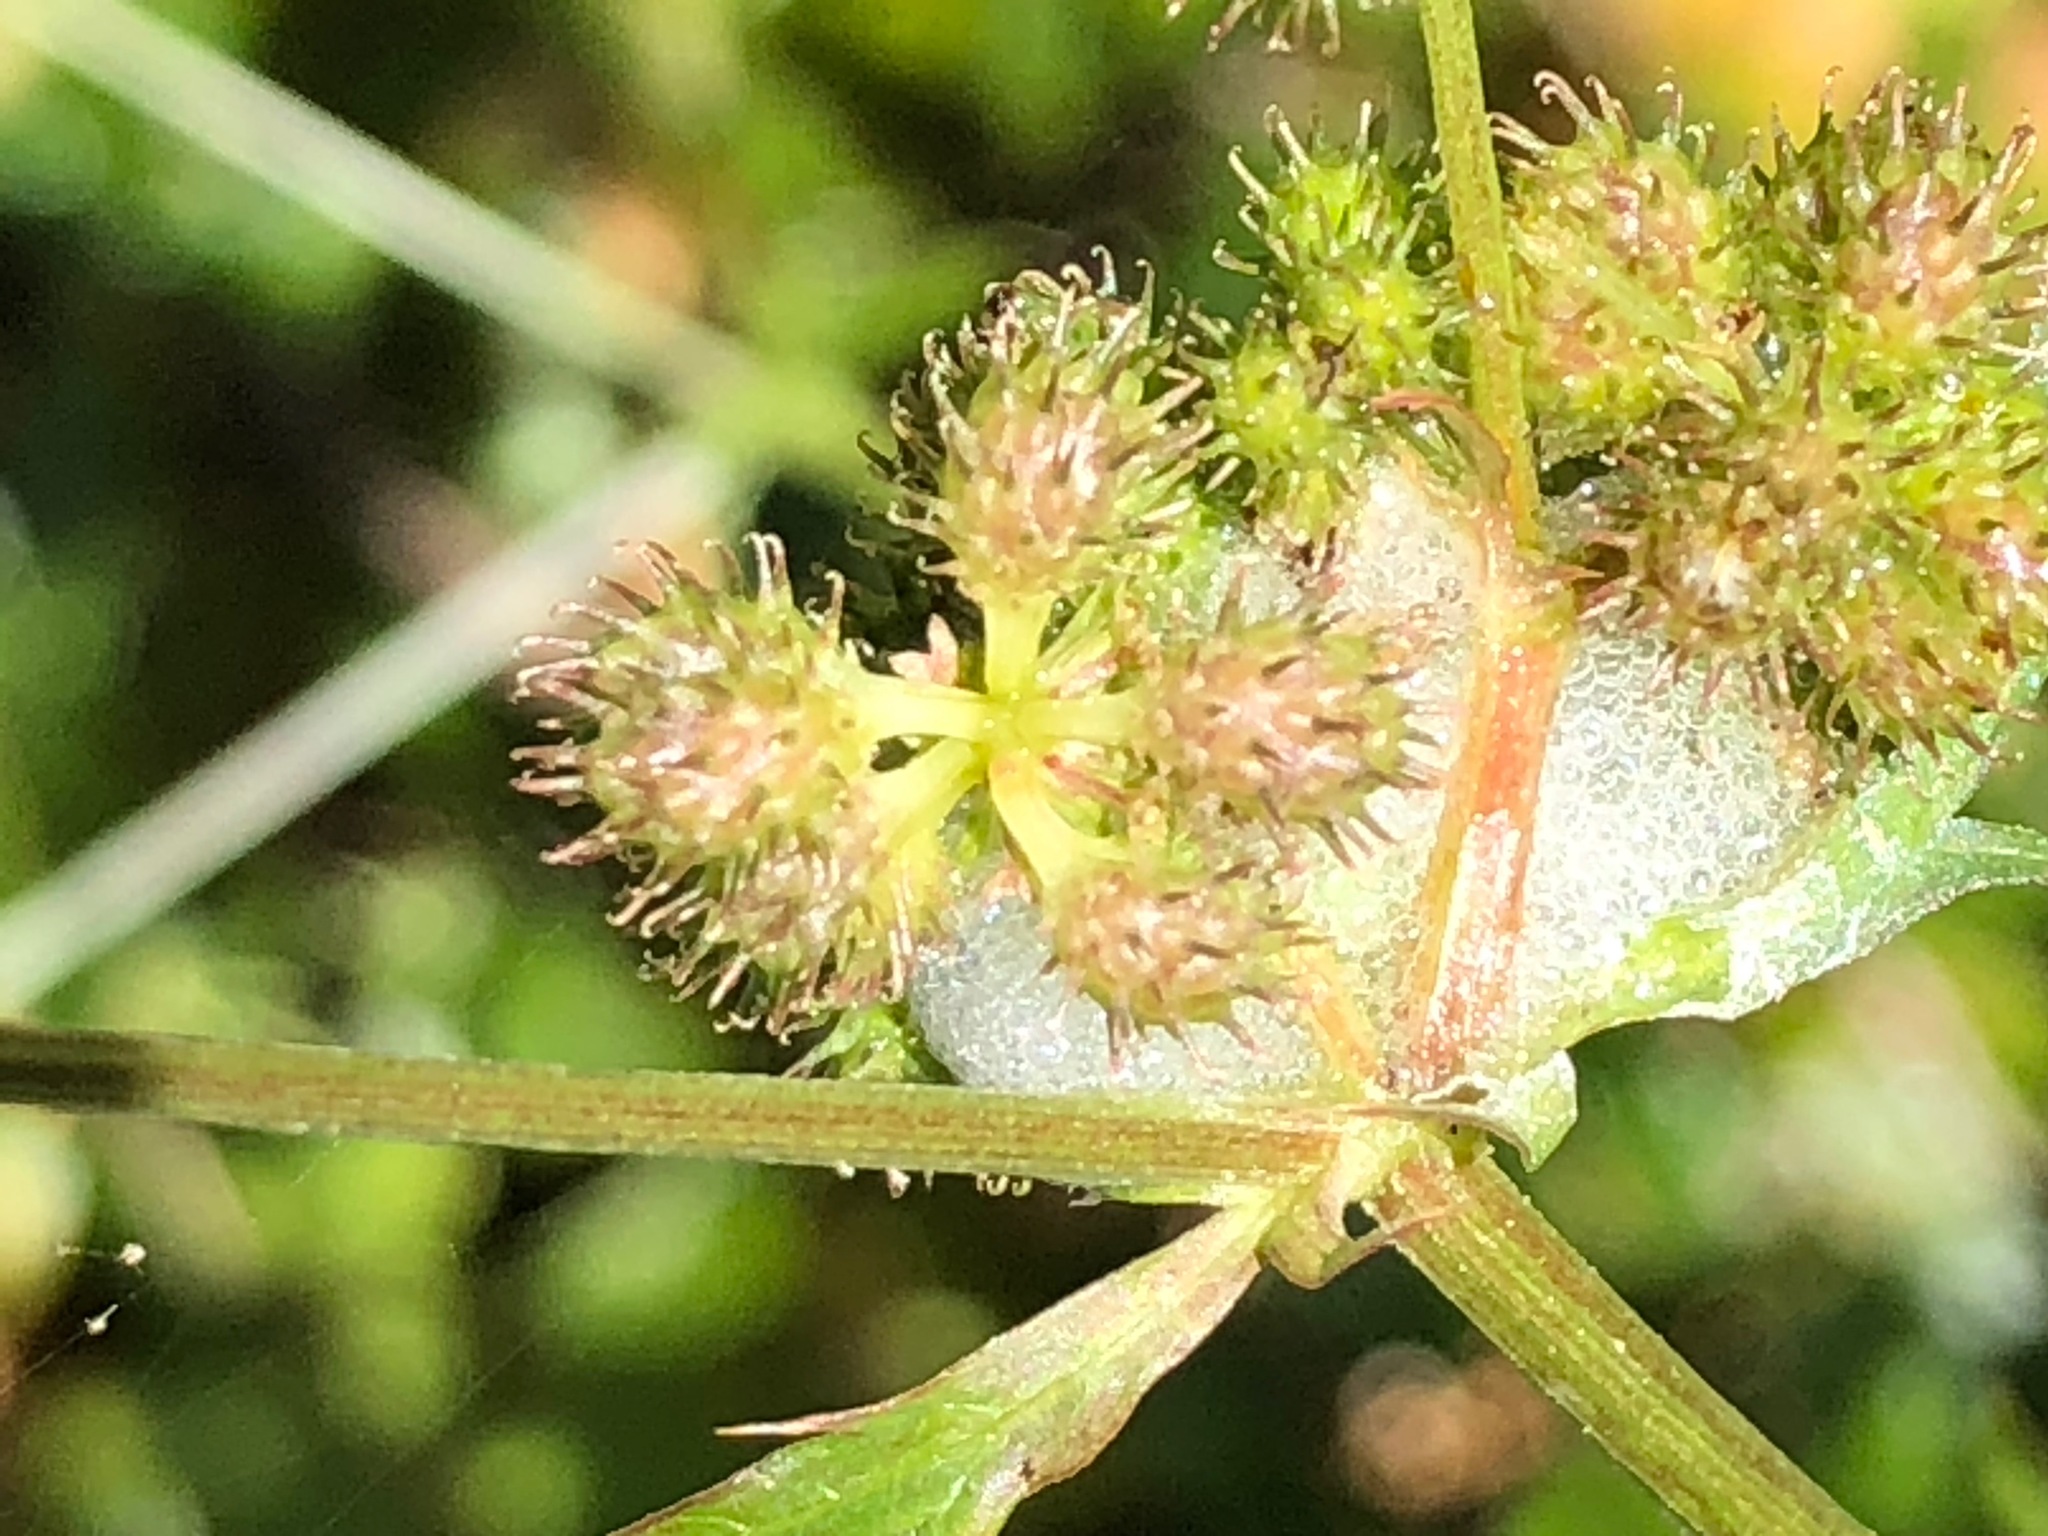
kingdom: Plantae
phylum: Tracheophyta
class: Magnoliopsida
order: Apiales
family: Apiaceae
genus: Sanicula
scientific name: Sanicula crassicaulis
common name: Western snakeroot
